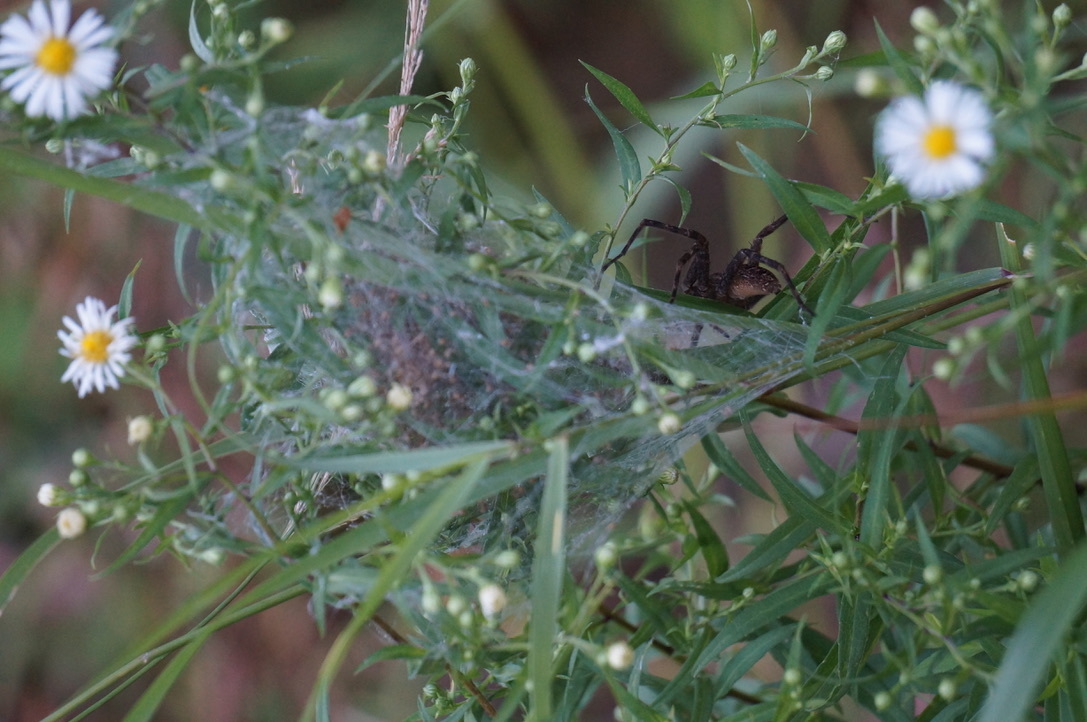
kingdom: Animalia
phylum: Arthropoda
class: Arachnida
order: Araneae
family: Pisauridae
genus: Dolomedes
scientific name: Dolomedes scriptus
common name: Striped fishing spider
